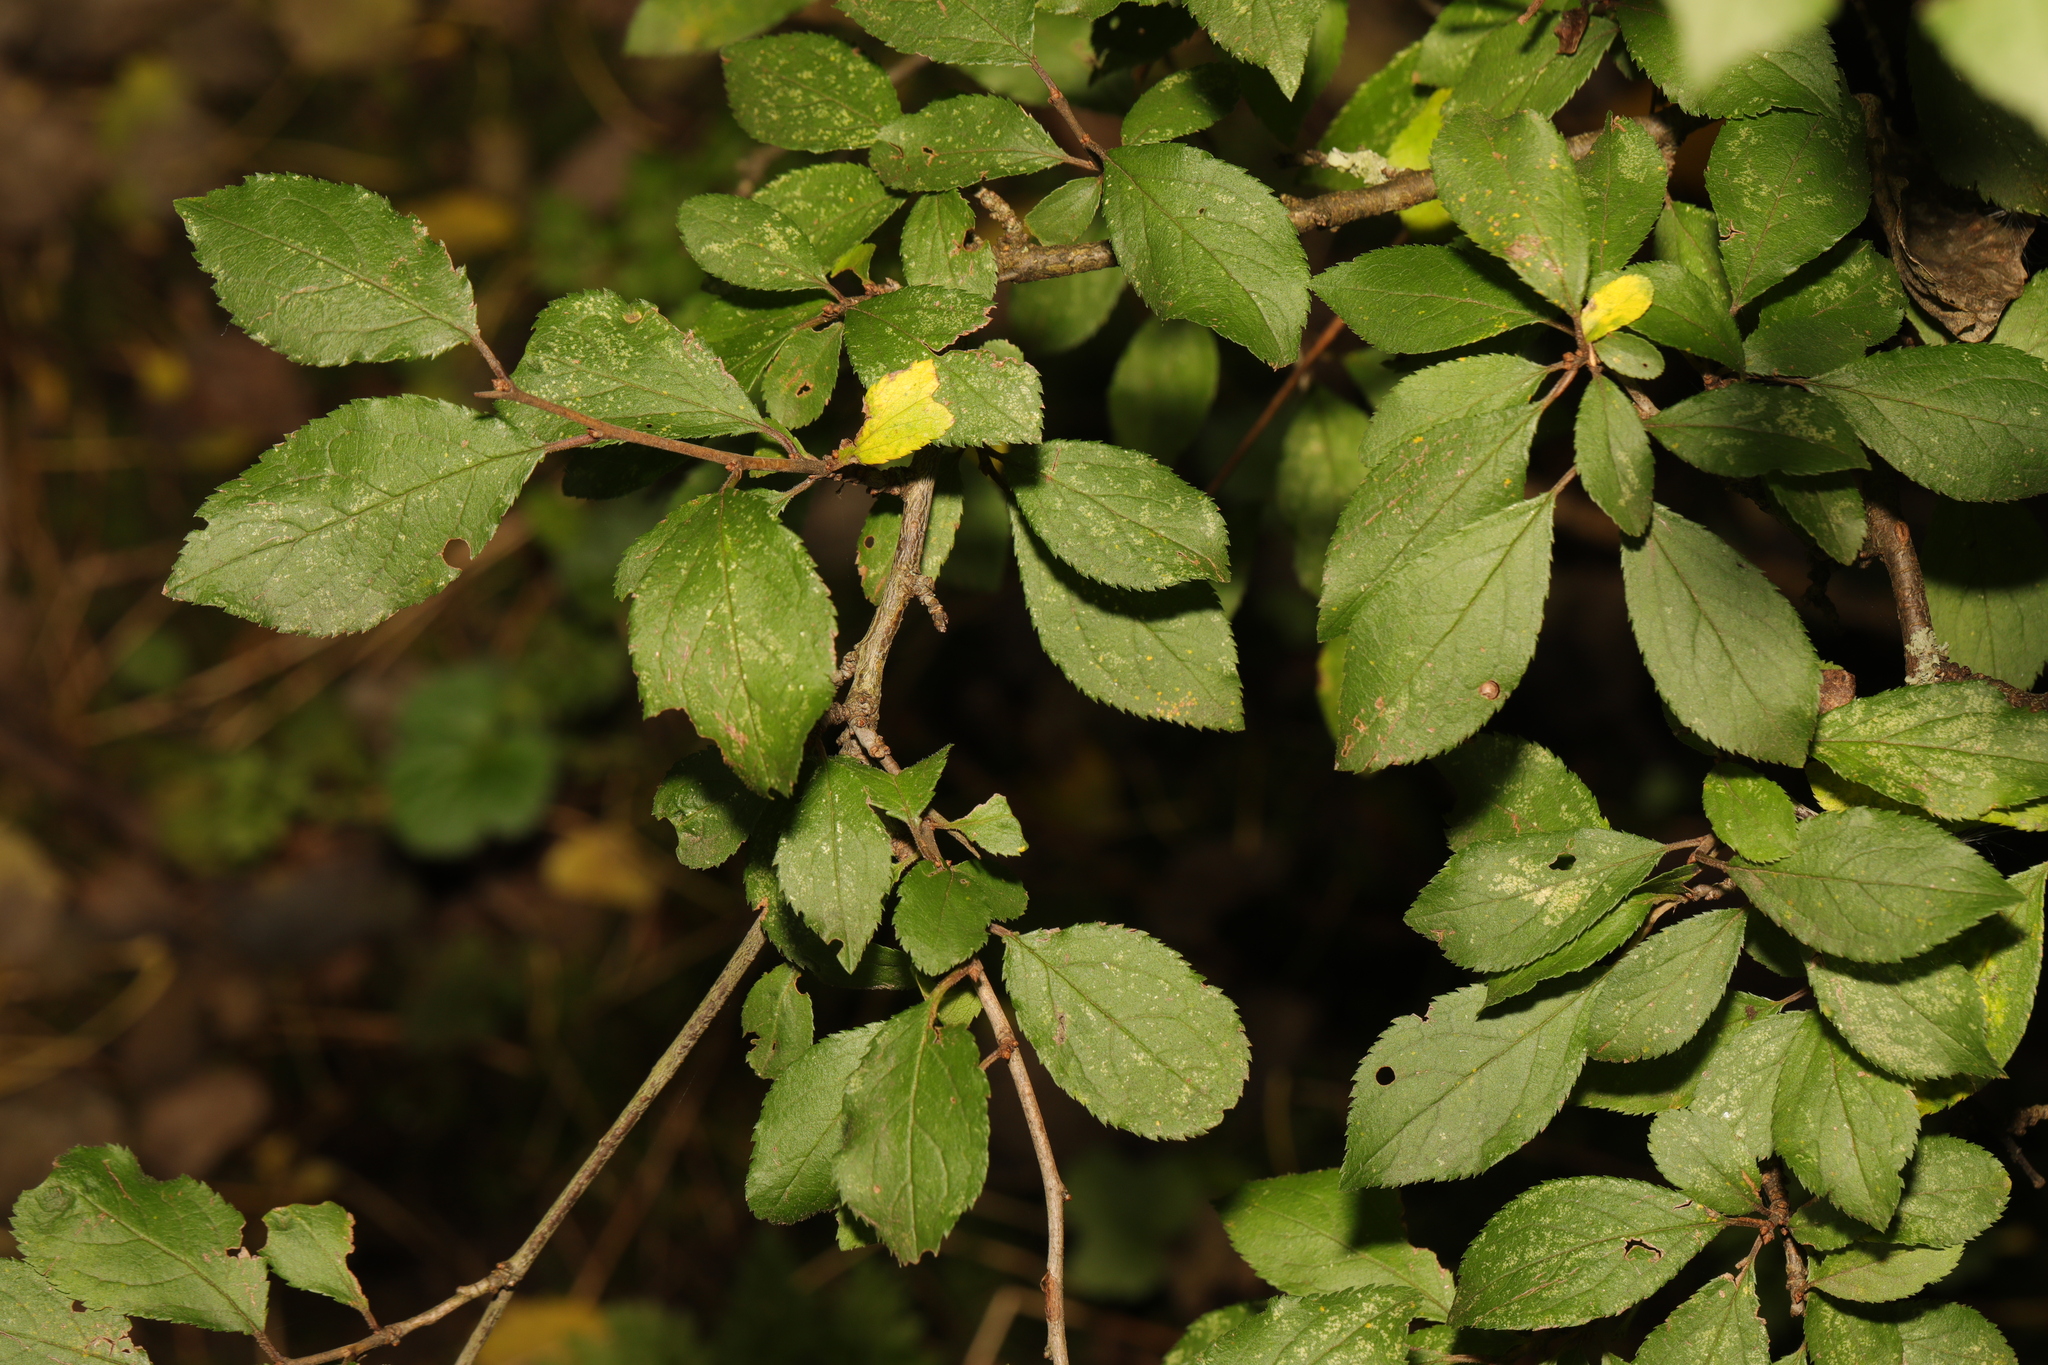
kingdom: Plantae
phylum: Tracheophyta
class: Magnoliopsida
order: Rosales
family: Rosaceae
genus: Prunus
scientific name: Prunus spinosa
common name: Blackthorn
